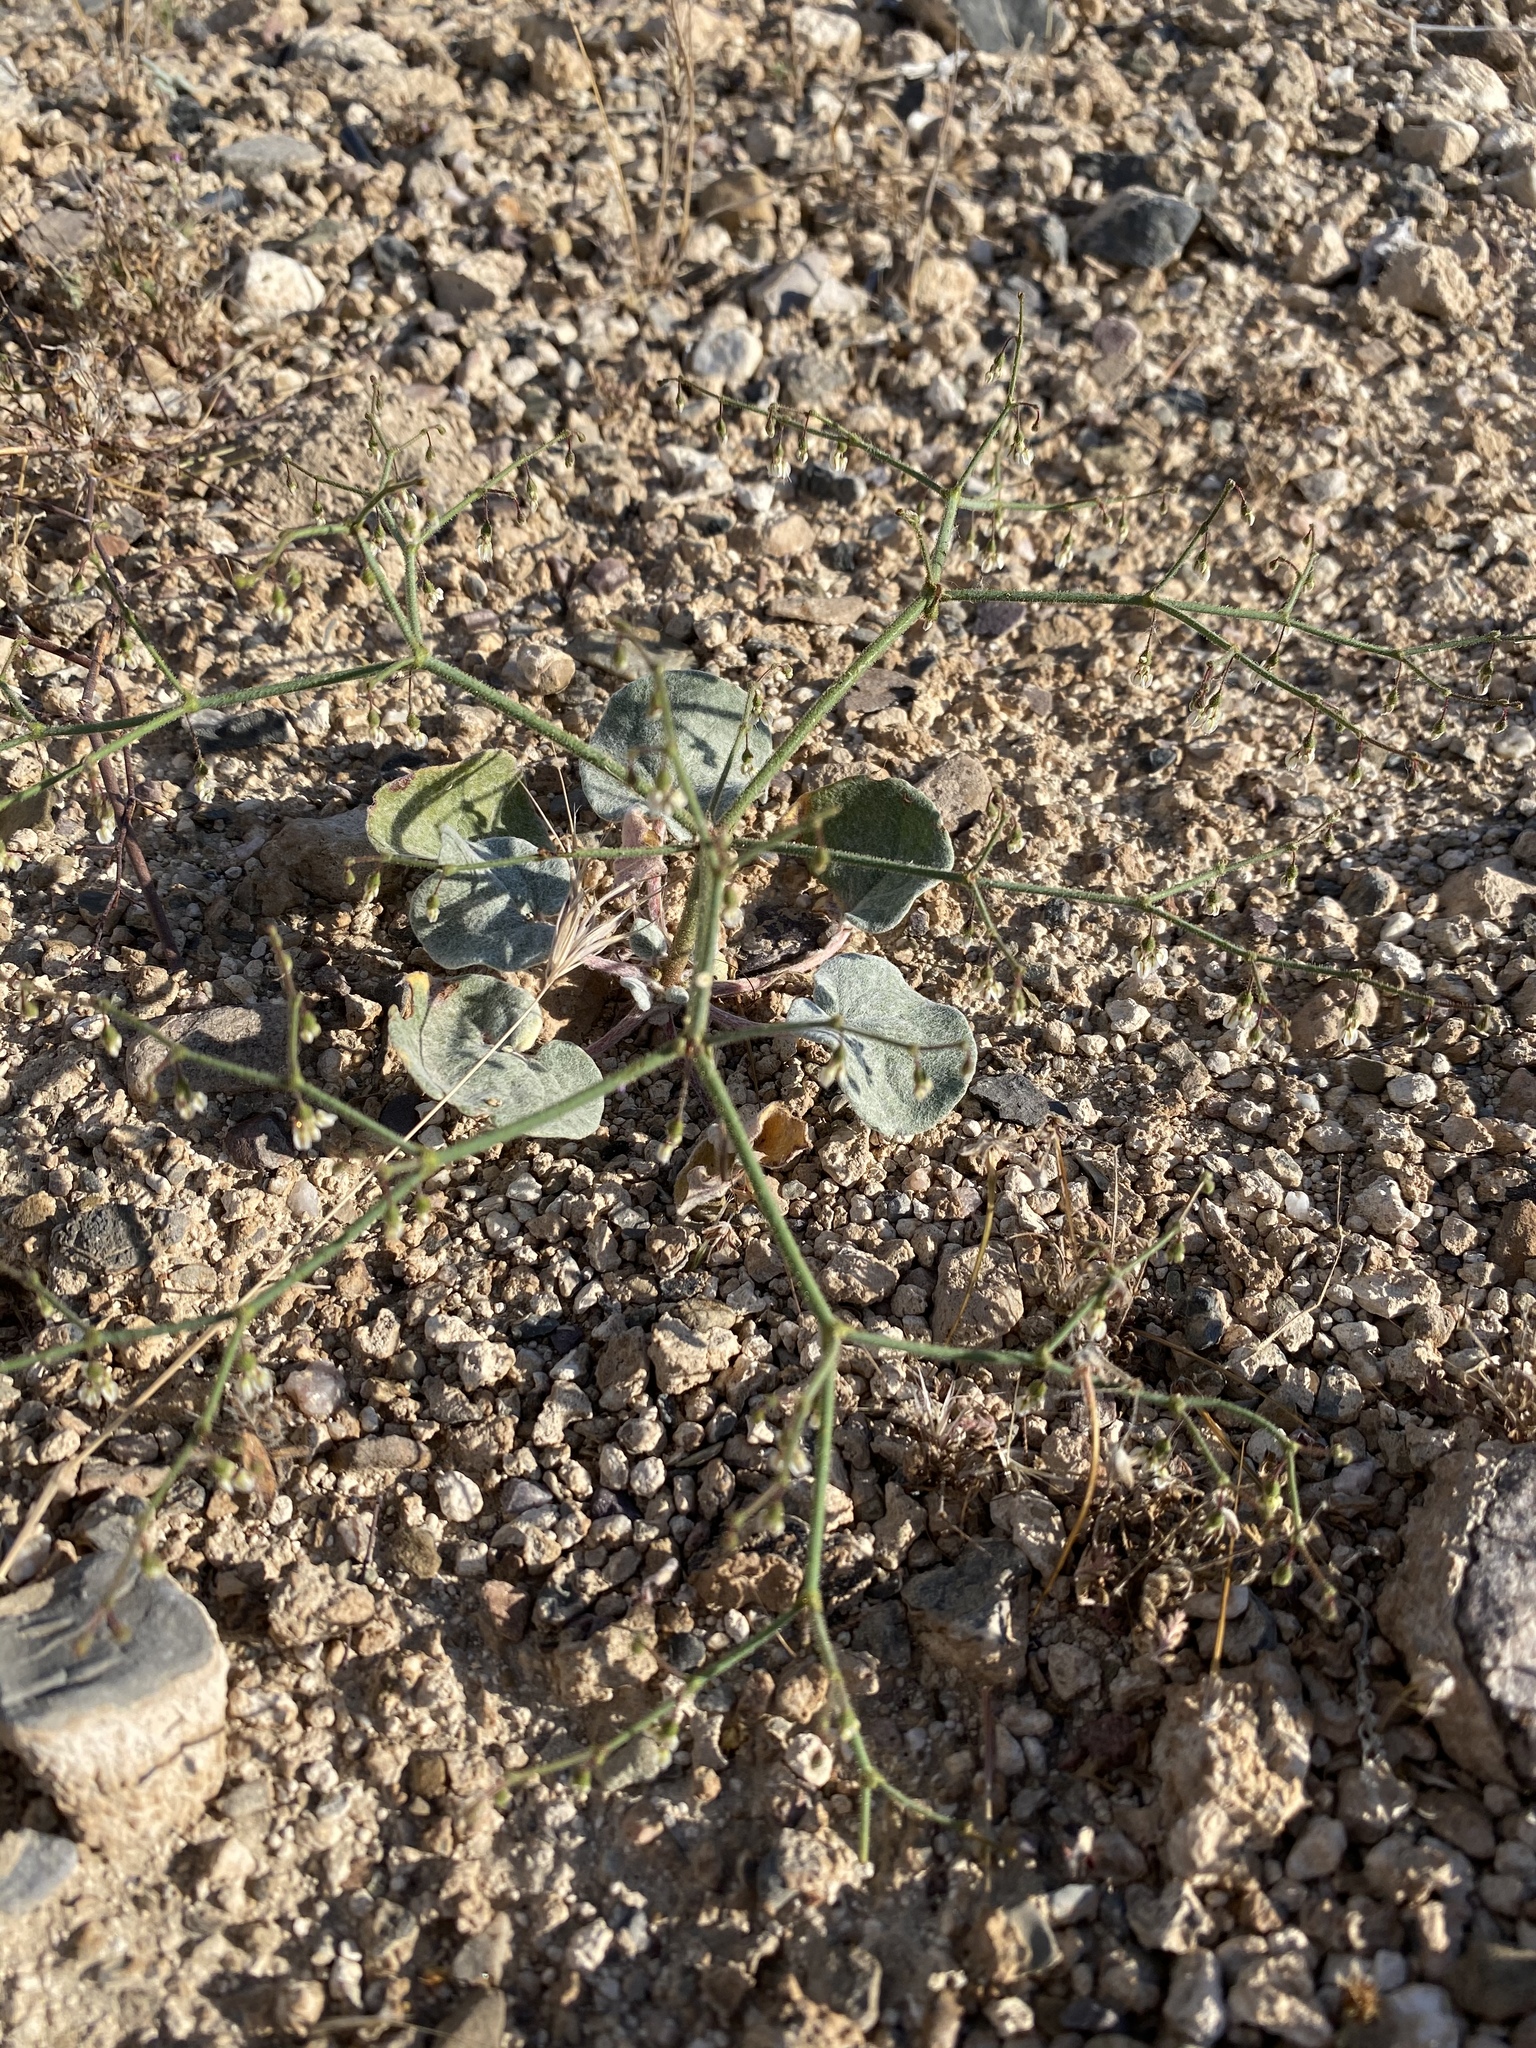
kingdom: Plantae
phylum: Tracheophyta
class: Magnoliopsida
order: Caryophyllales
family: Polygonaceae
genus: Eriogonum
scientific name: Eriogonum brachypodum
